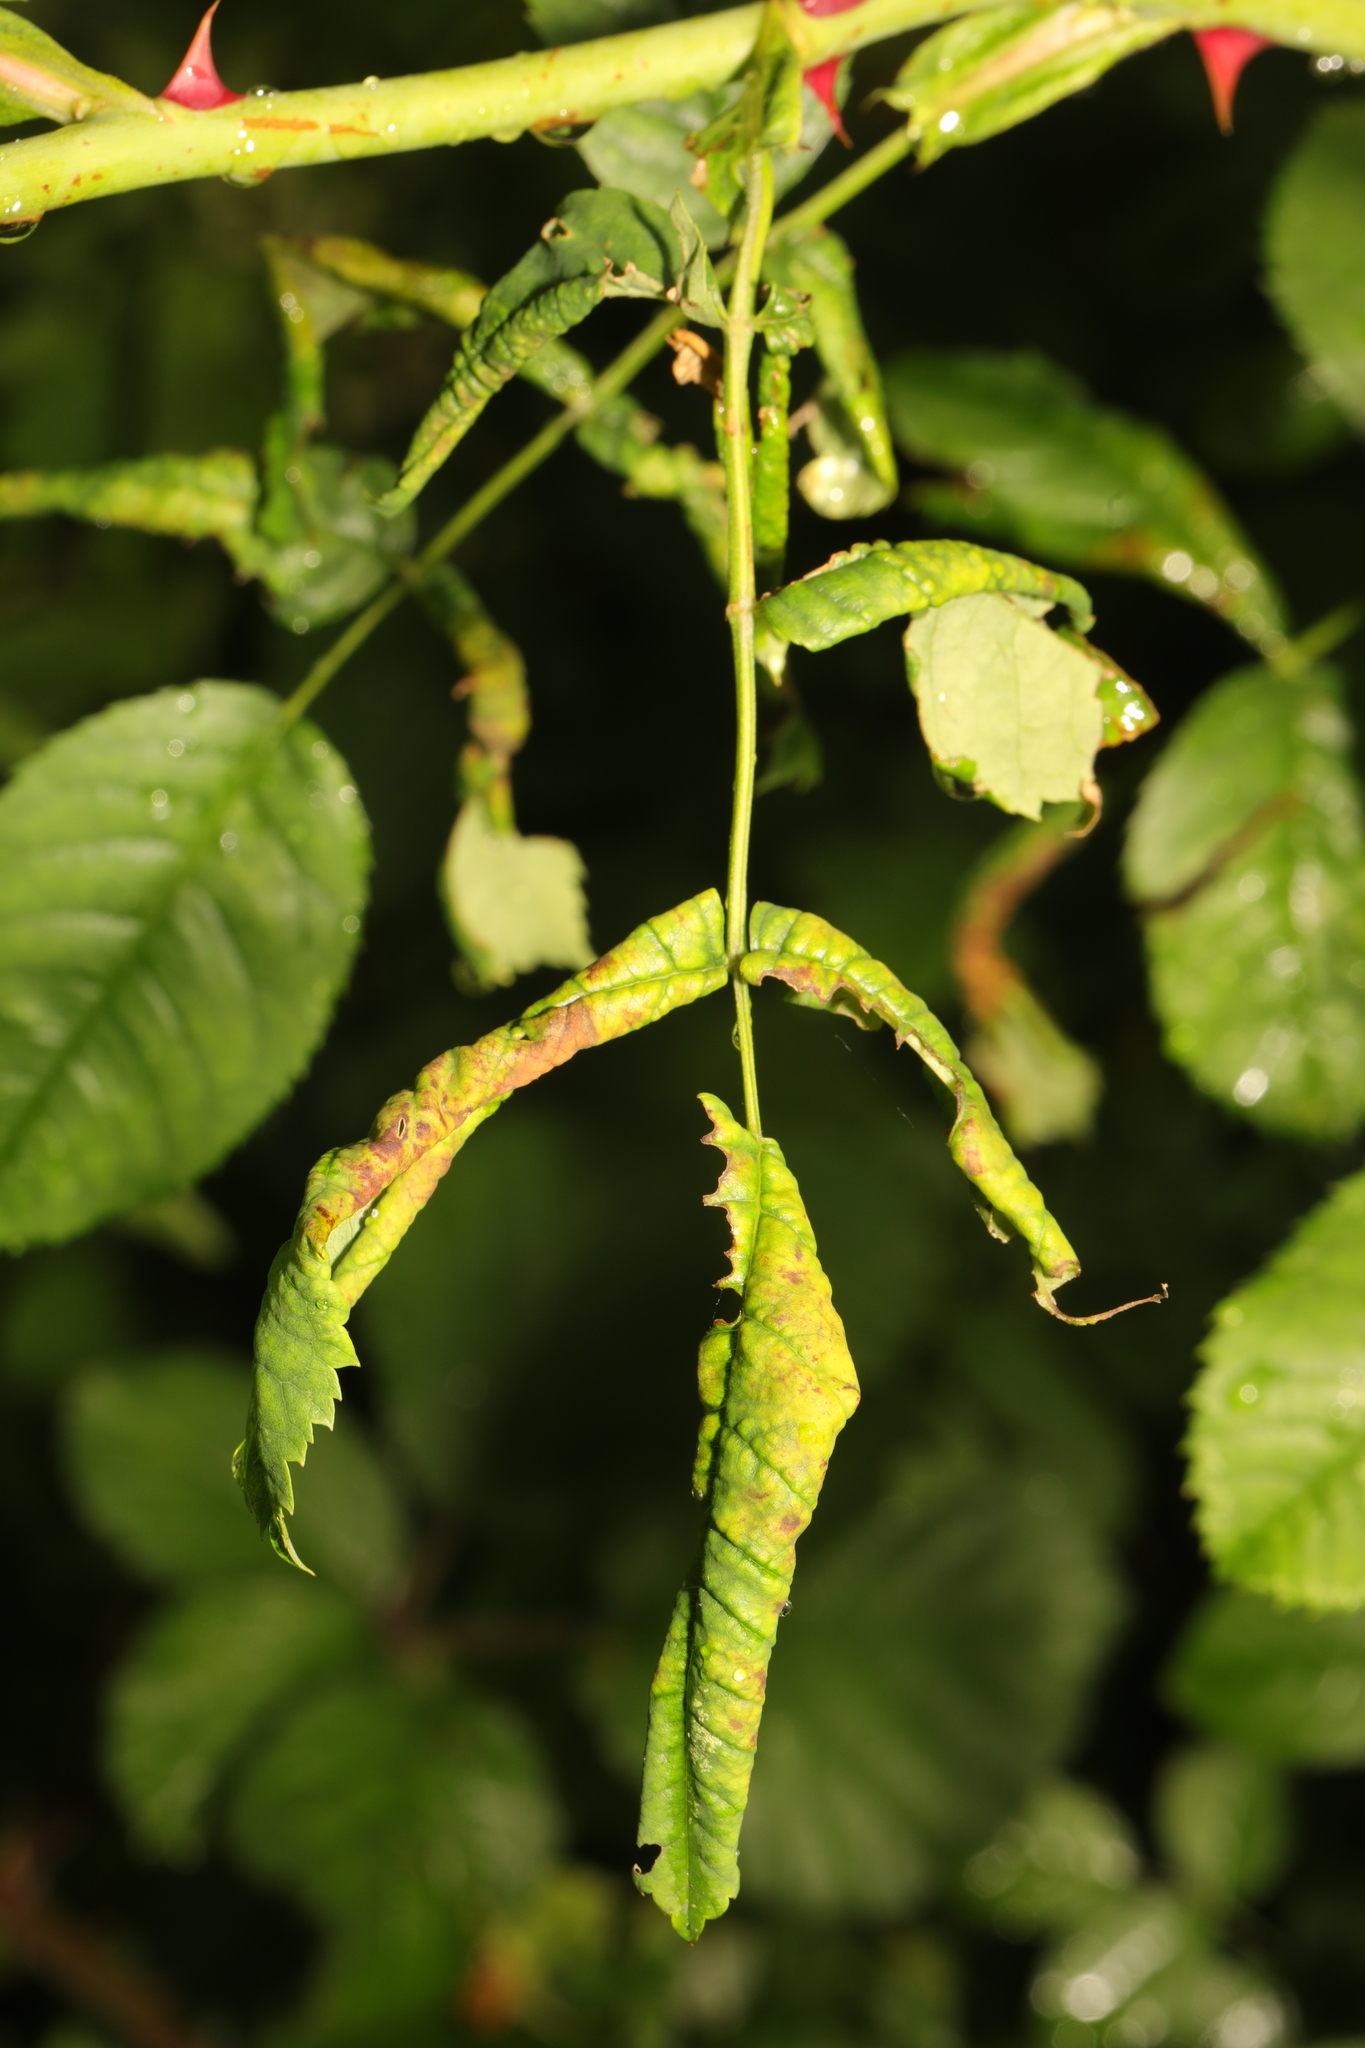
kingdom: Animalia
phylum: Arthropoda
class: Insecta
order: Hymenoptera
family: Tenthredinidae
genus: Blennocampa
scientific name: Blennocampa phyllocolpa
